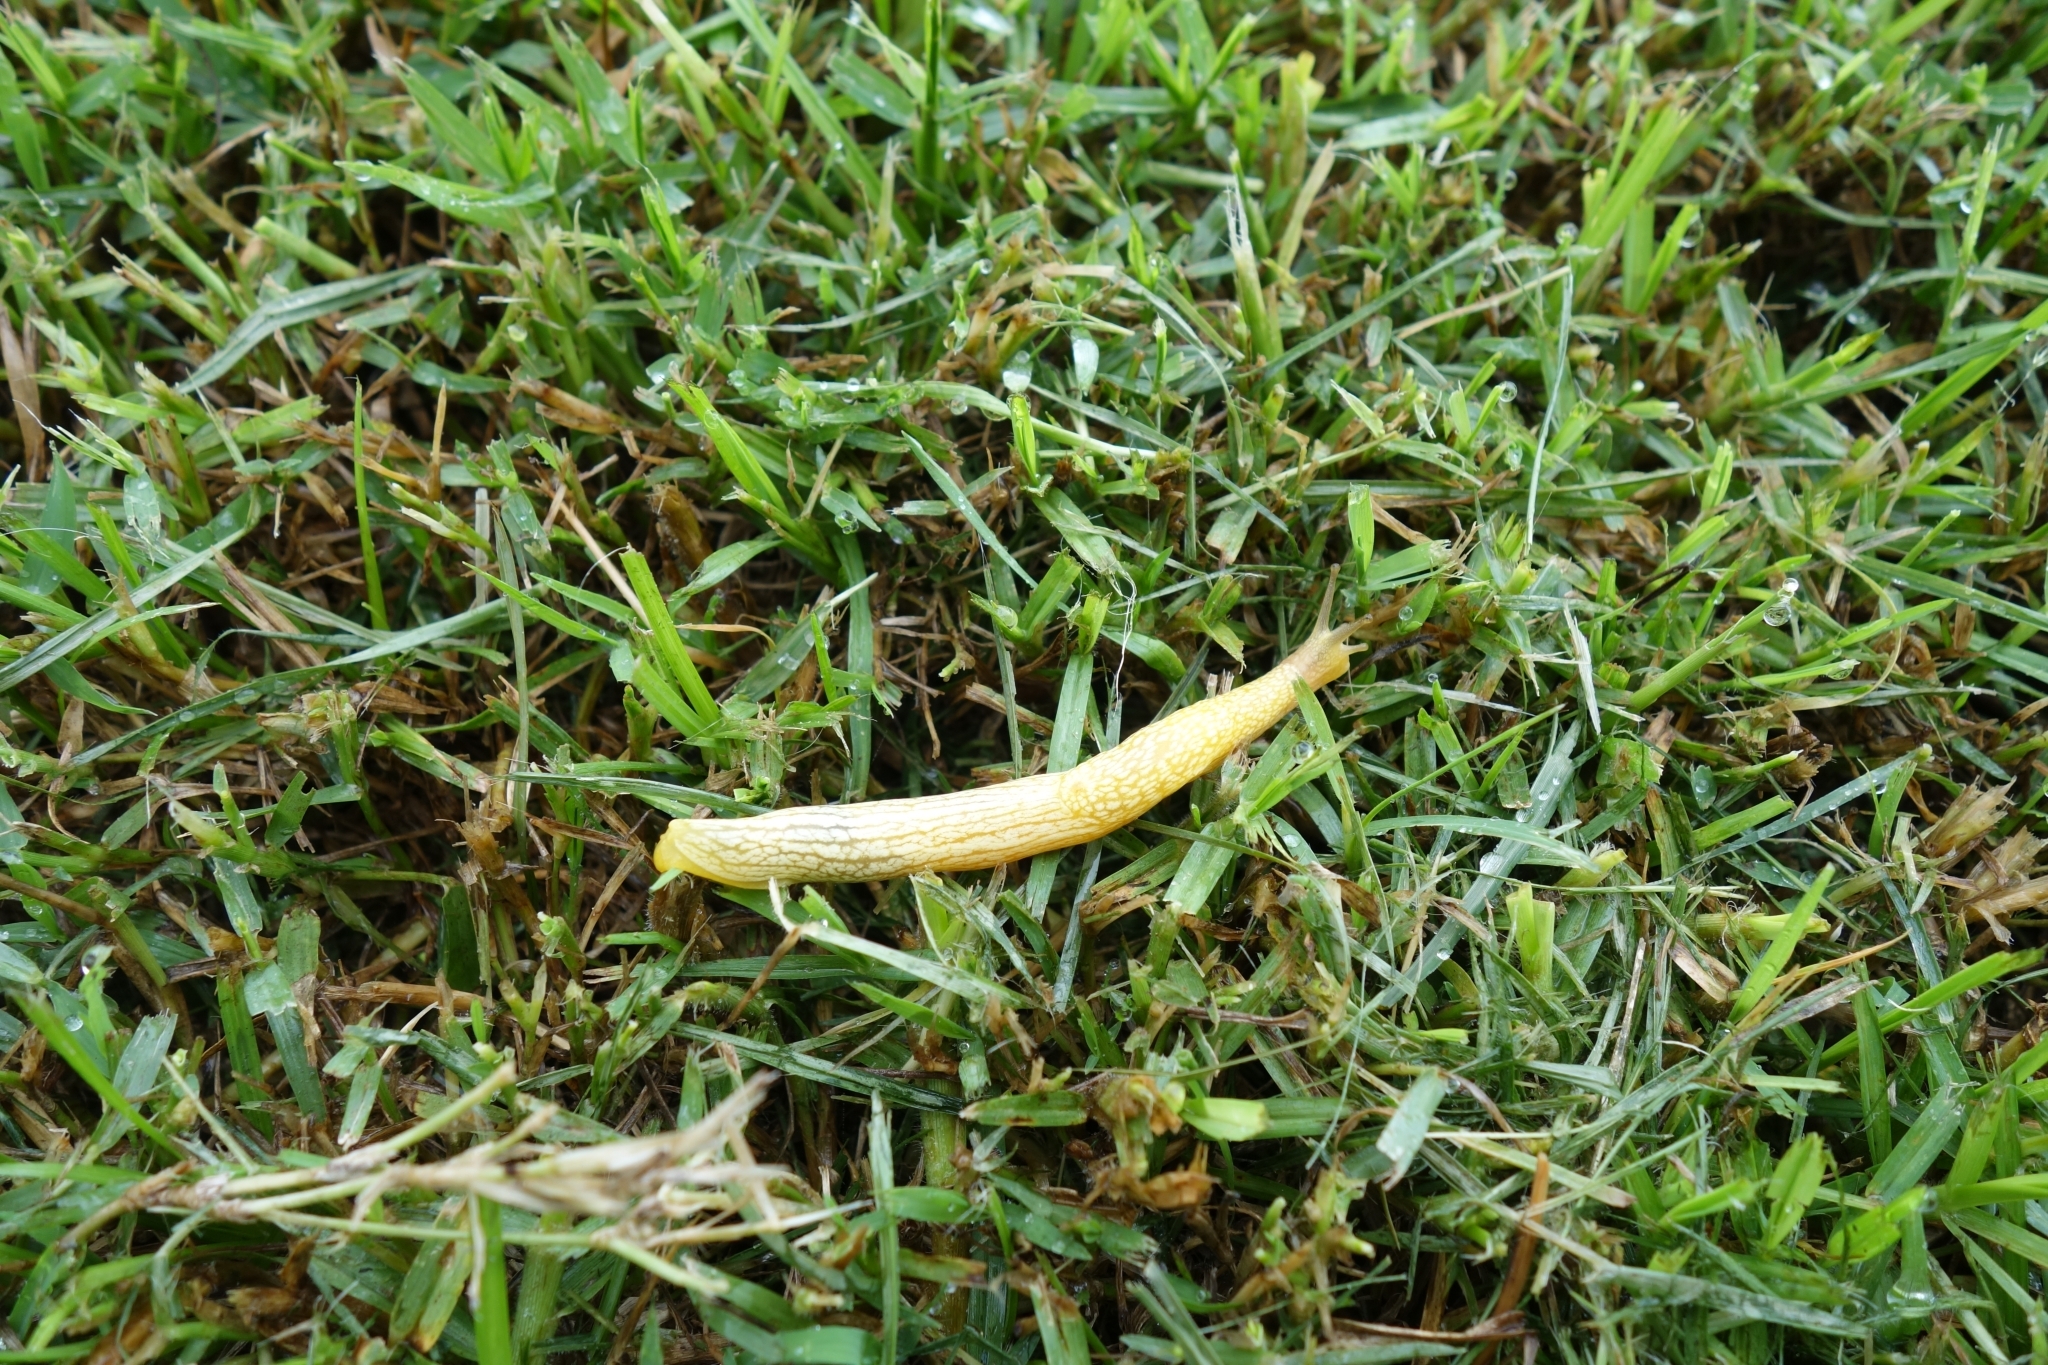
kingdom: Animalia
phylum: Mollusca
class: Gastropoda
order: Stylommatophora
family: Urocyclidae
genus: Elisolimax
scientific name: Elisolimax flavescens
